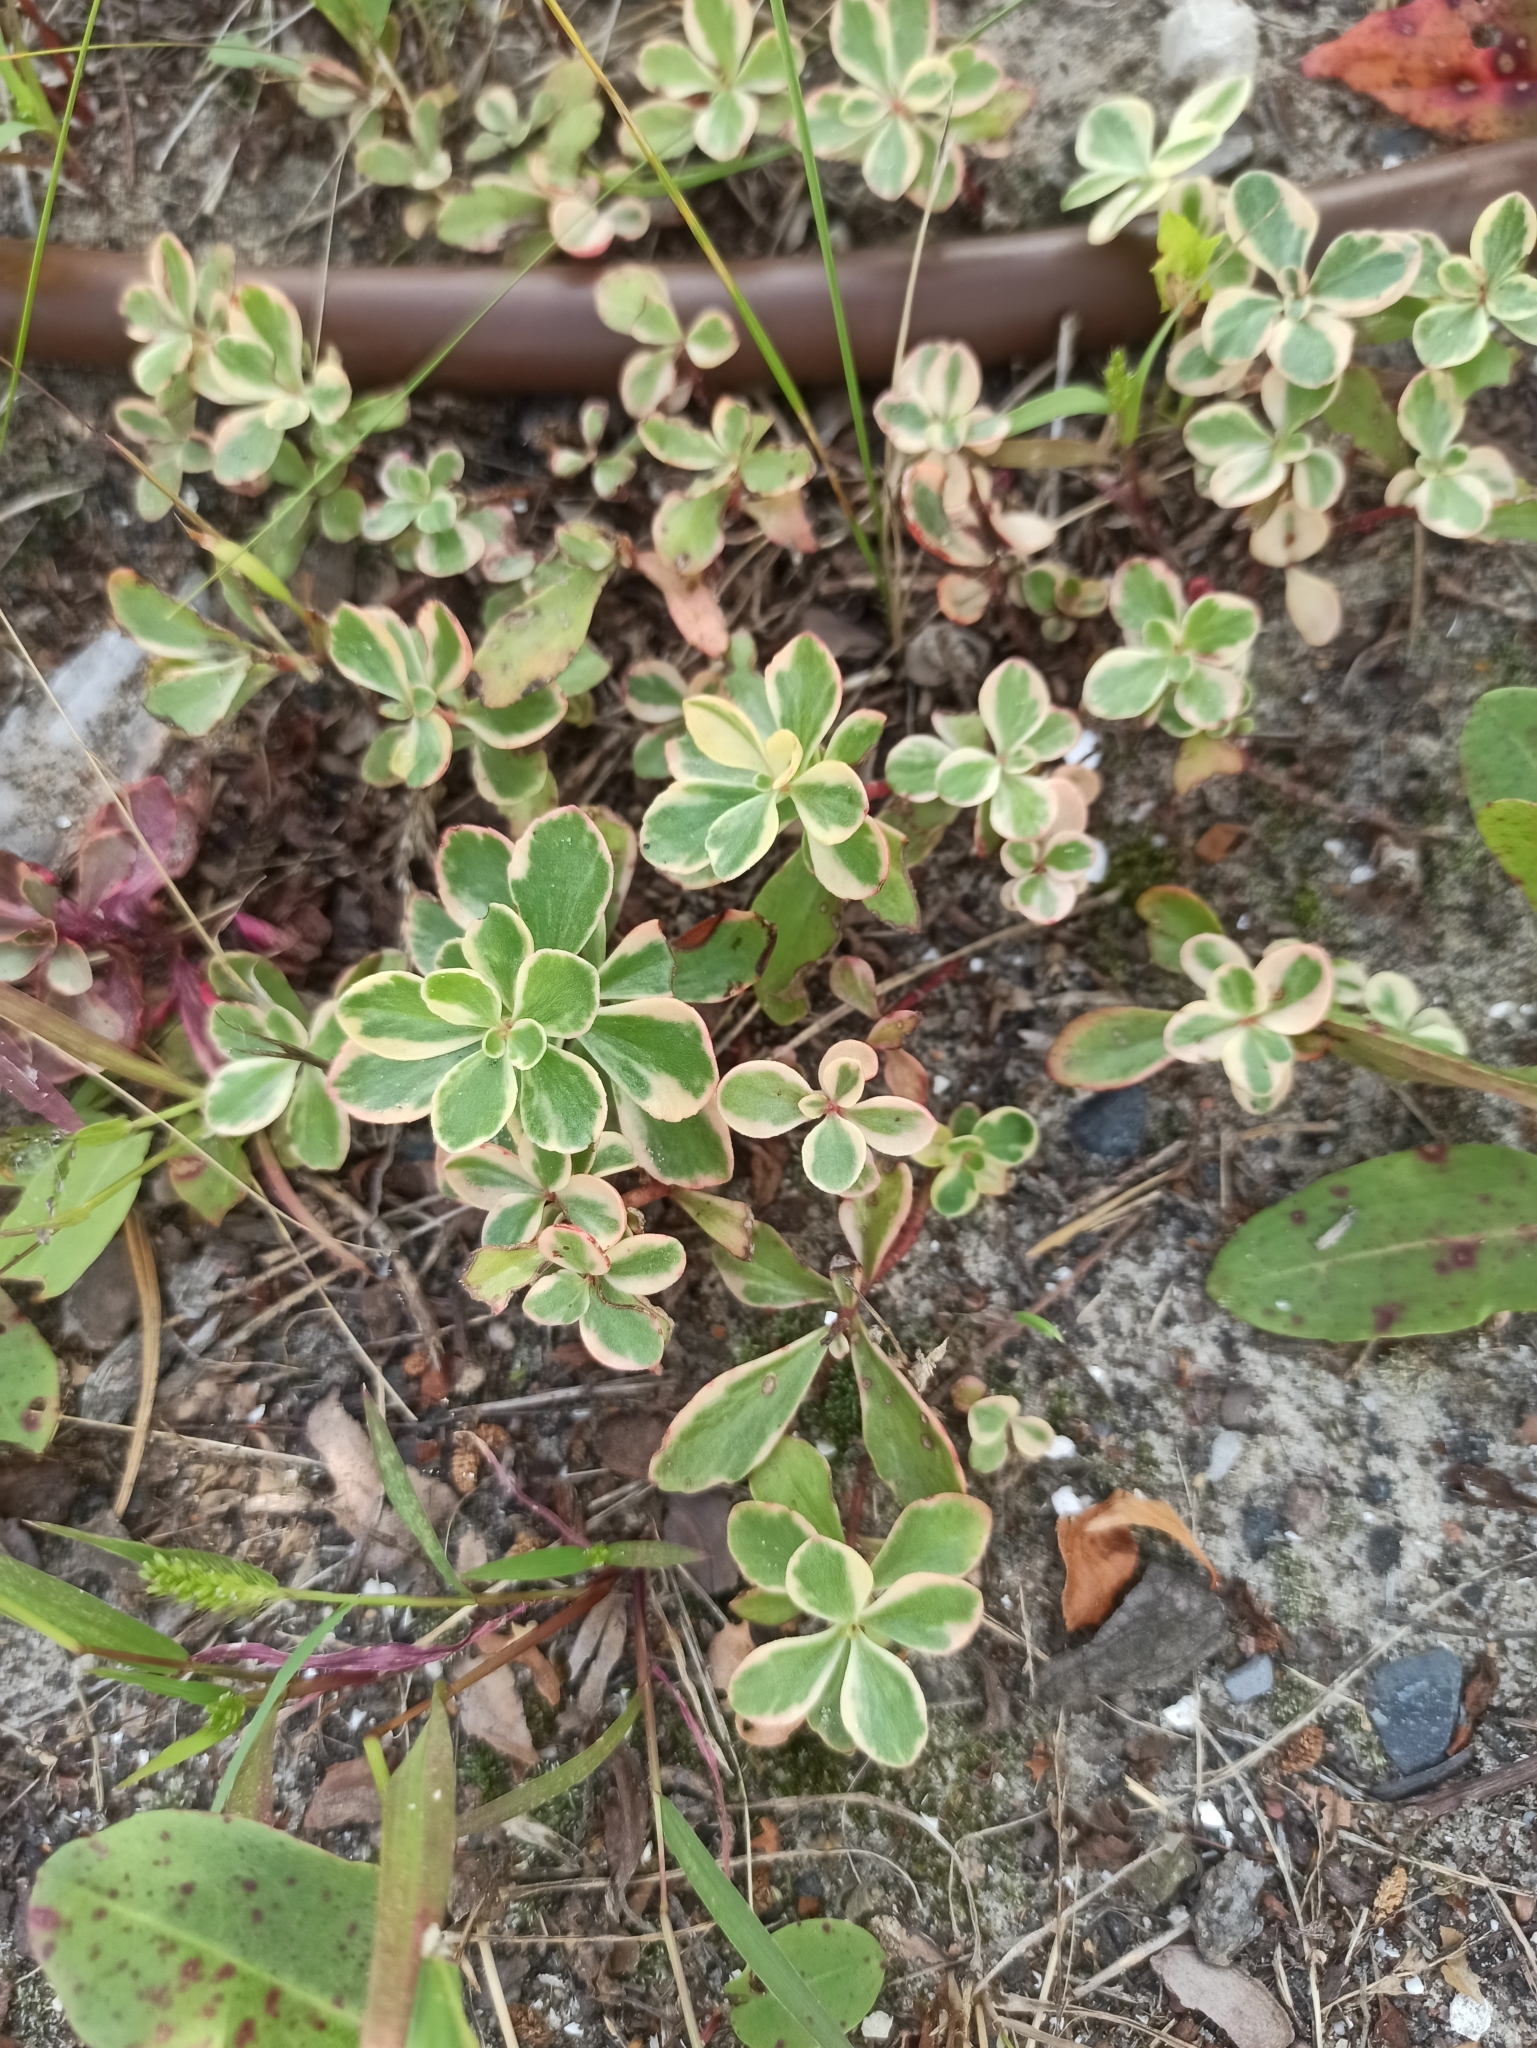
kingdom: Plantae
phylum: Tracheophyta
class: Magnoliopsida
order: Saxifragales
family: Crassulaceae
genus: Phedimus
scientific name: Phedimus kamtschaticus
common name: Orange stonecrop
